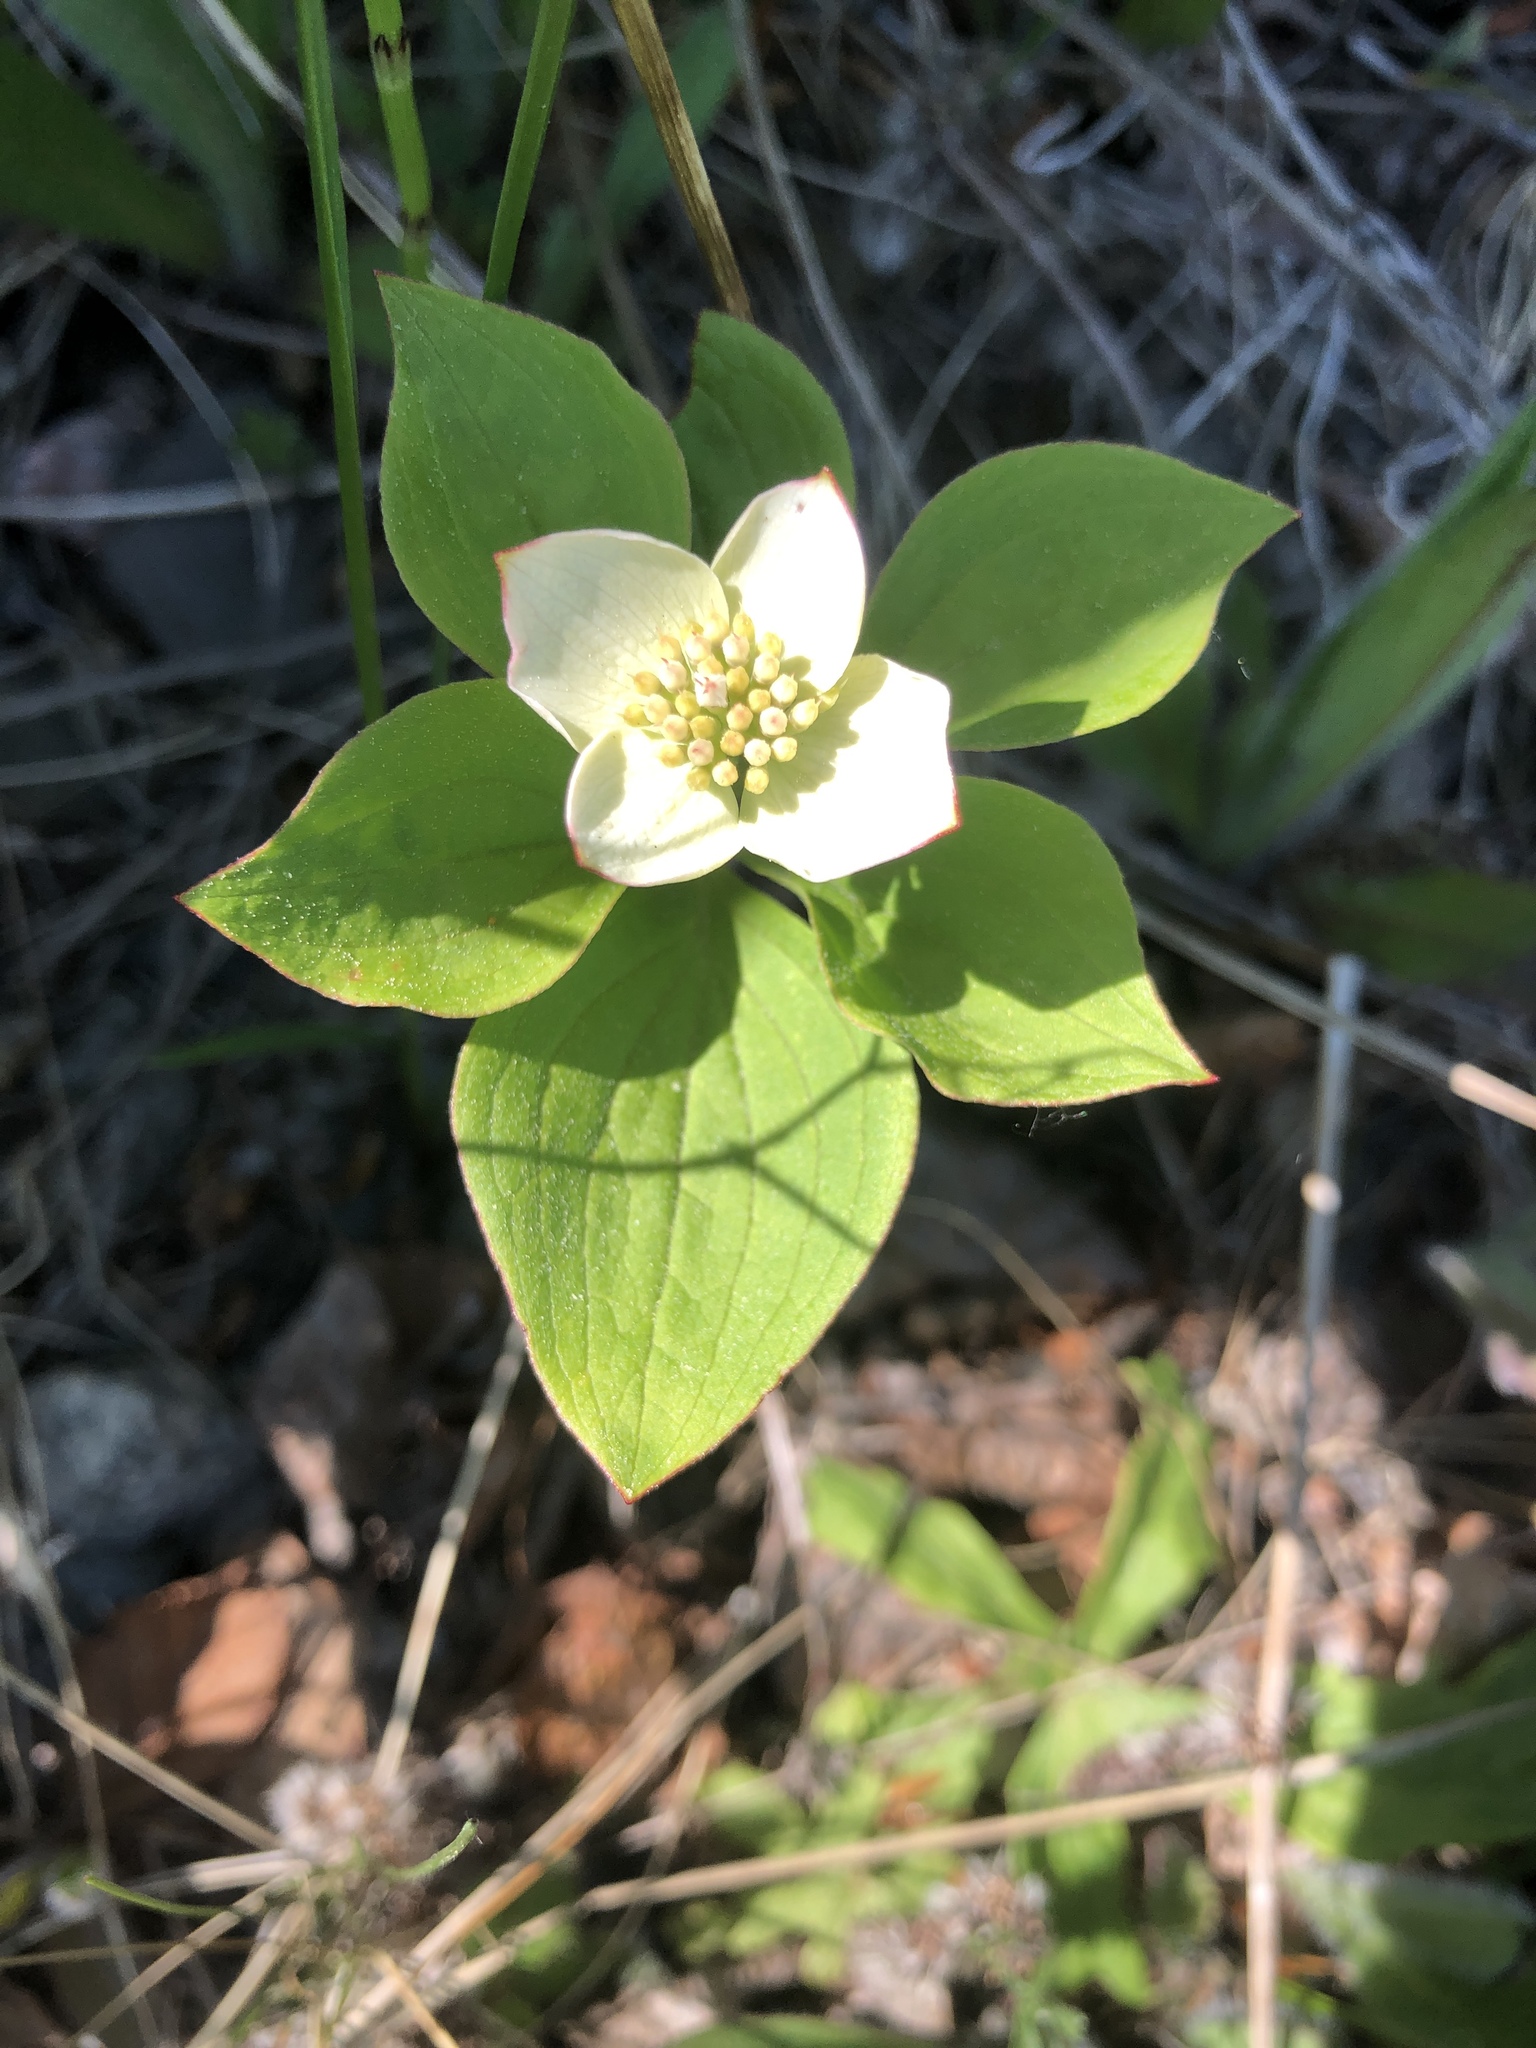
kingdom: Plantae
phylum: Tracheophyta
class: Magnoliopsida
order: Cornales
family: Cornaceae
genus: Cornus
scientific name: Cornus canadensis
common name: Creeping dogwood
